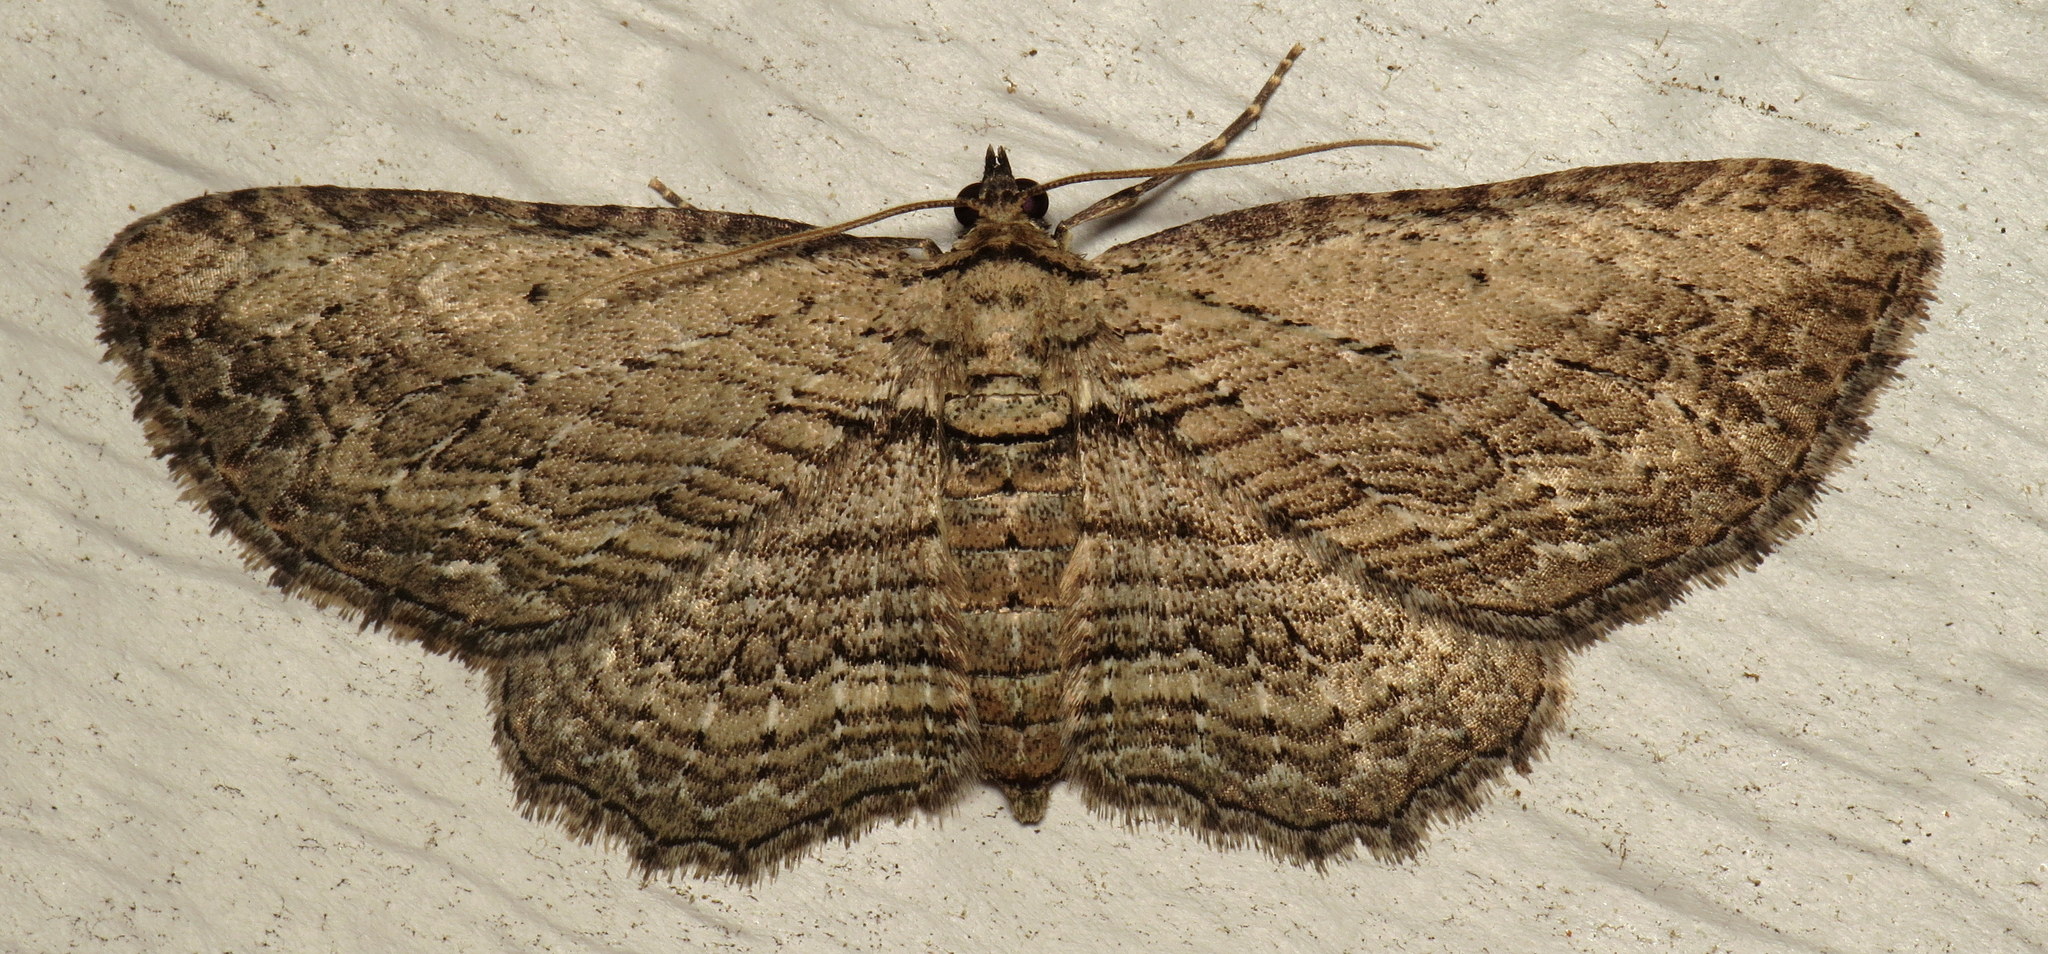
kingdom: Animalia
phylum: Arthropoda
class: Insecta
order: Lepidoptera
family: Geometridae
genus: Horisme
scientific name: Horisme intestinata
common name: Brown bark carpet
